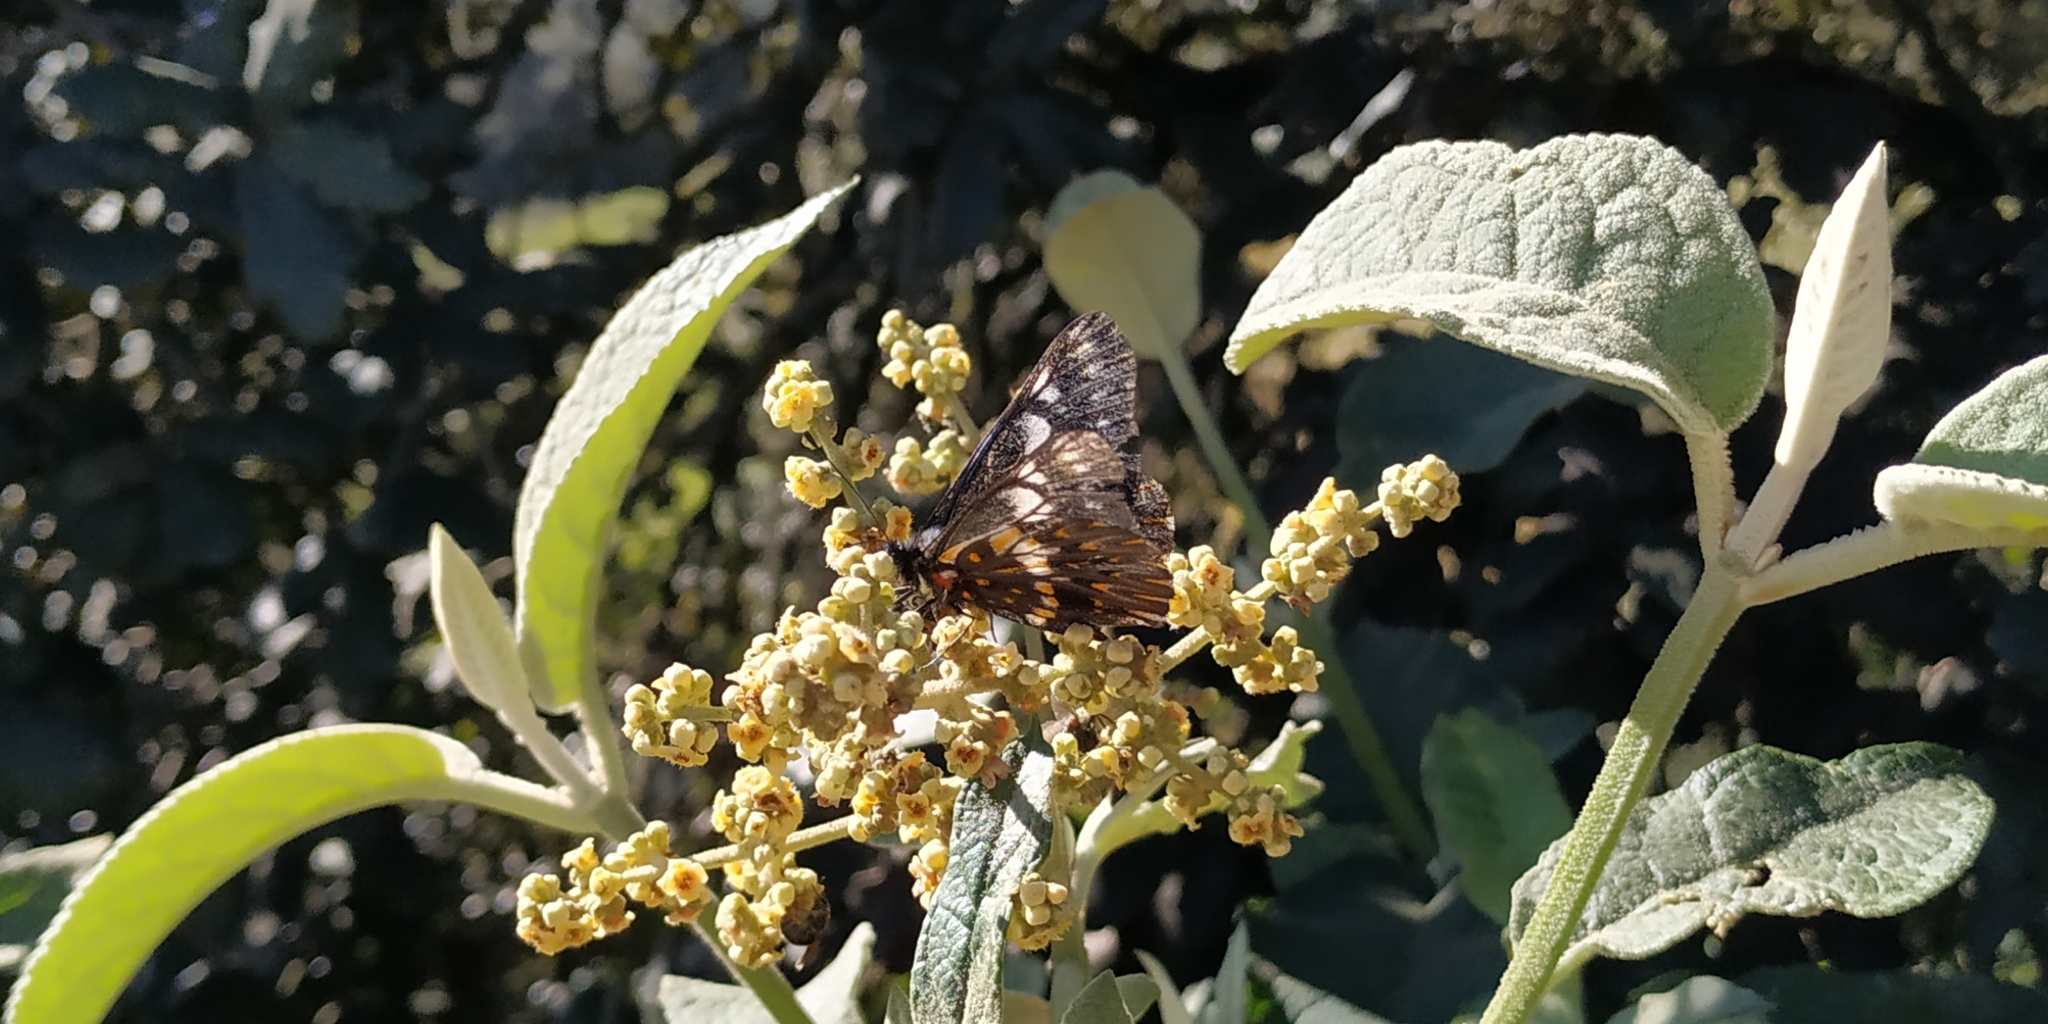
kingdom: Animalia
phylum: Arthropoda
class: Insecta
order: Lepidoptera
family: Pieridae
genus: Archonias
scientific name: Archonias teutila
